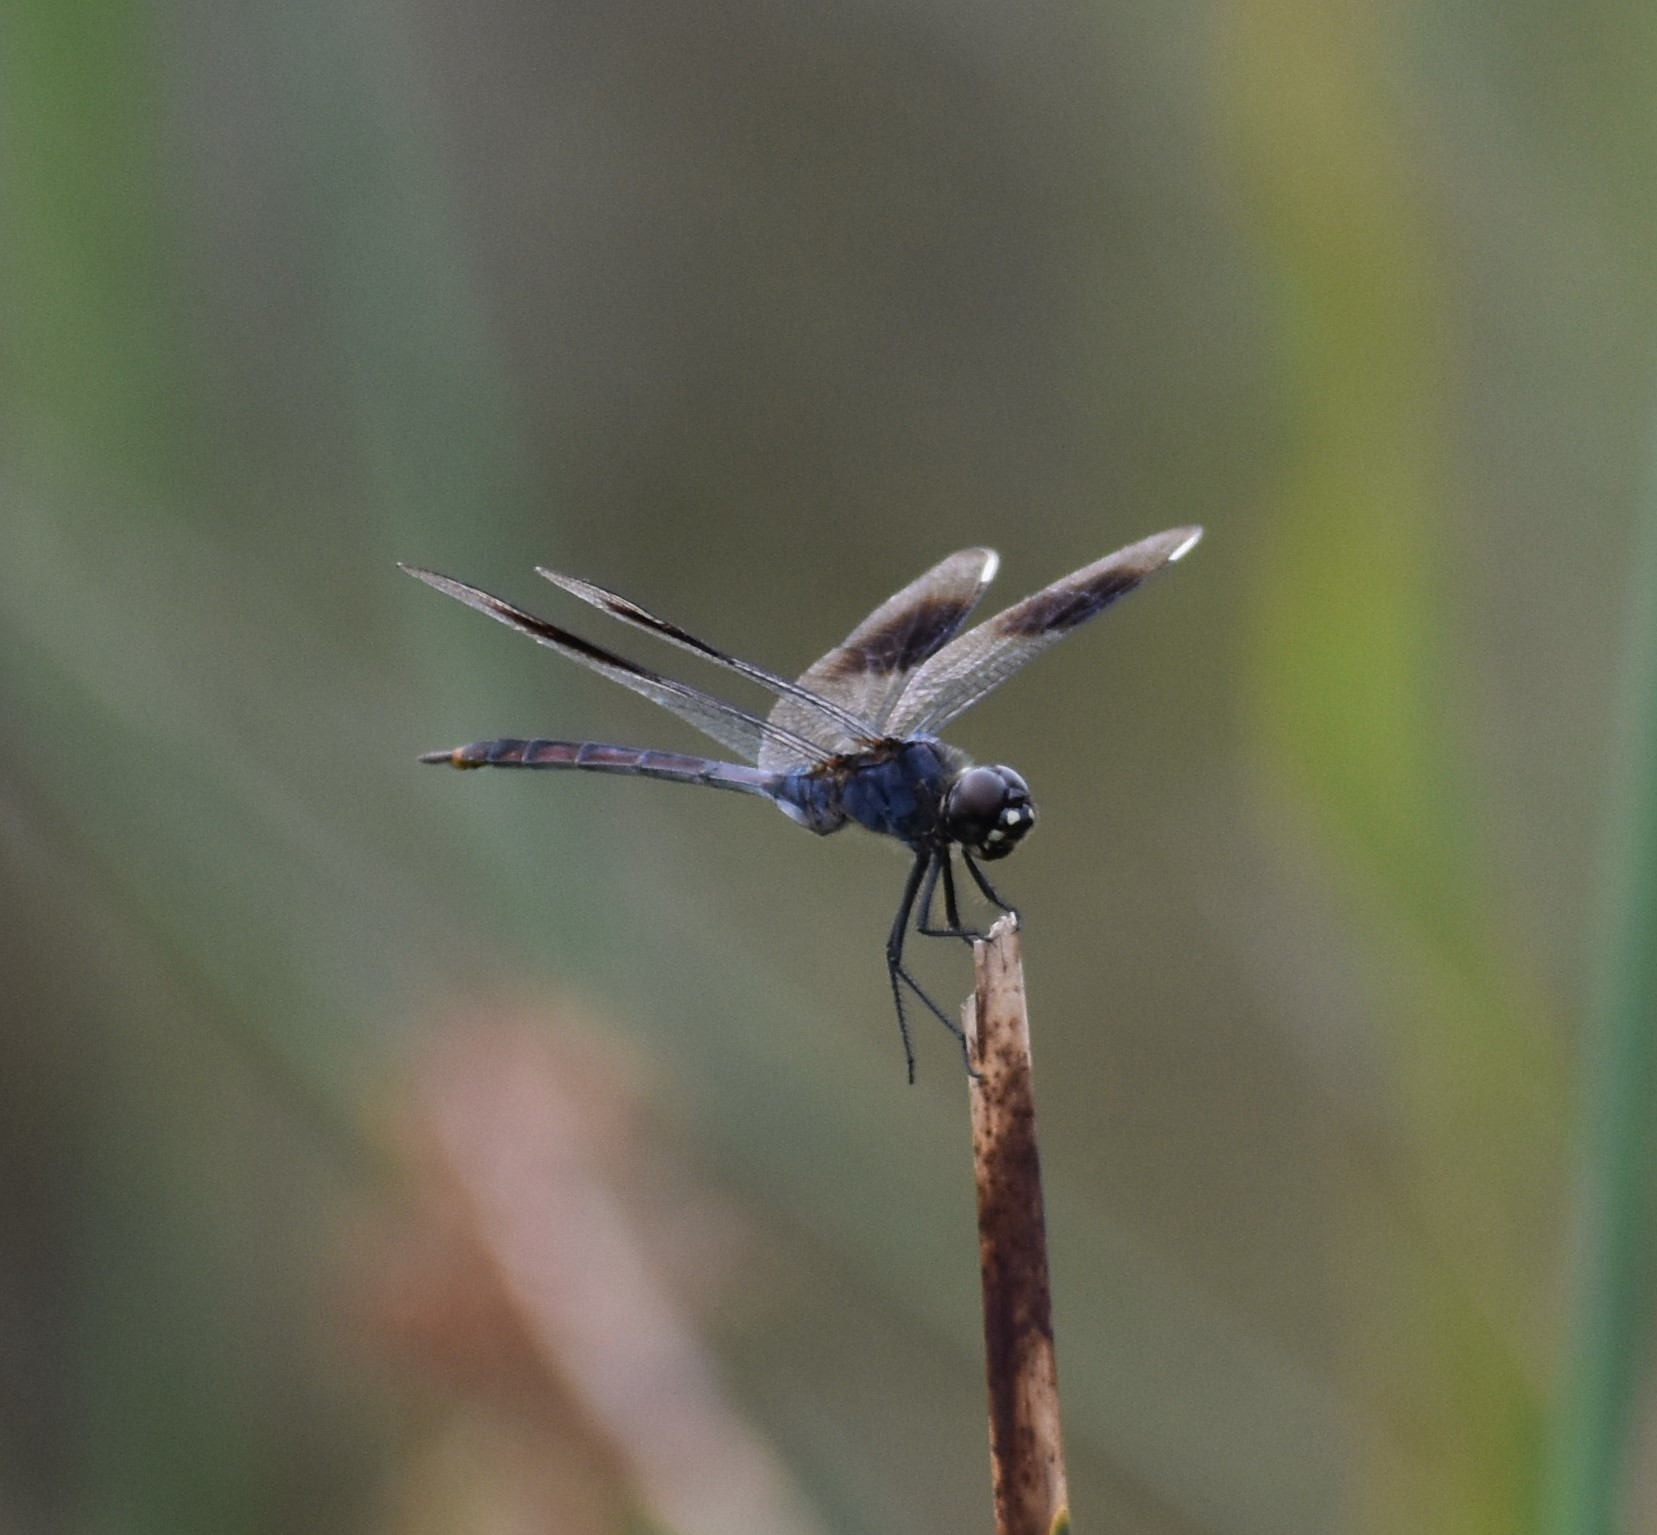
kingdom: Animalia
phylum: Arthropoda
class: Insecta
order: Odonata
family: Libellulidae
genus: Brachymesia
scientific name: Brachymesia gravida
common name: Four-spotted pennant
